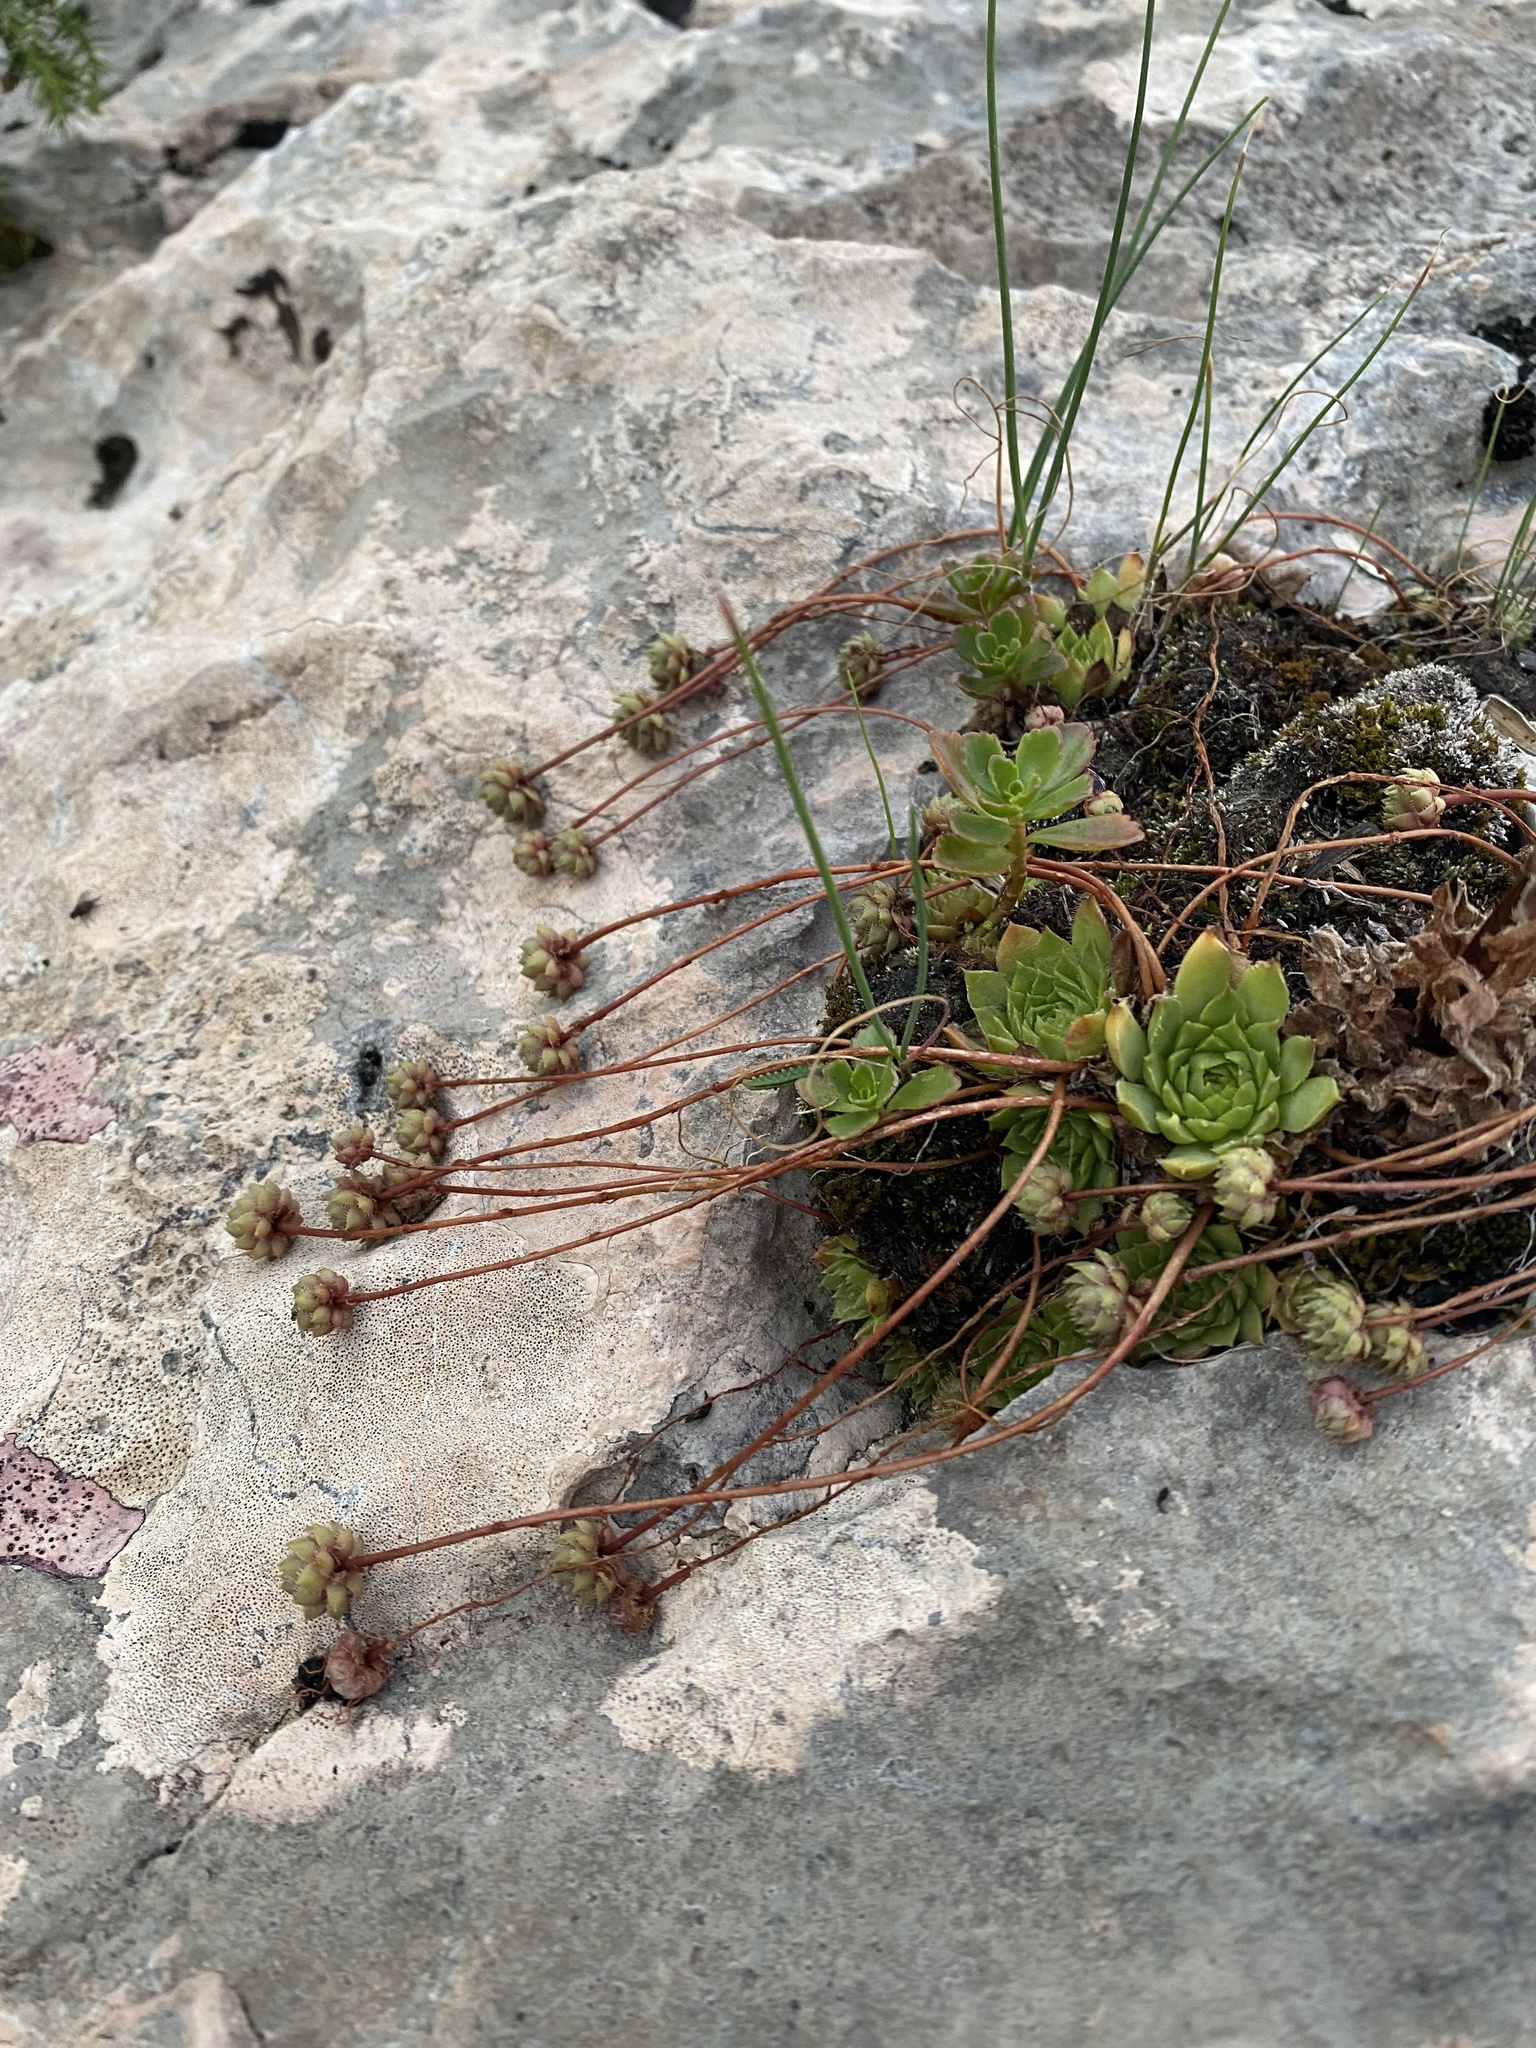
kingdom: Plantae
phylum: Tracheophyta
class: Magnoliopsida
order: Saxifragales
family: Crassulaceae
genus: Sempervivum
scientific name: Sempervivum caucasicum
